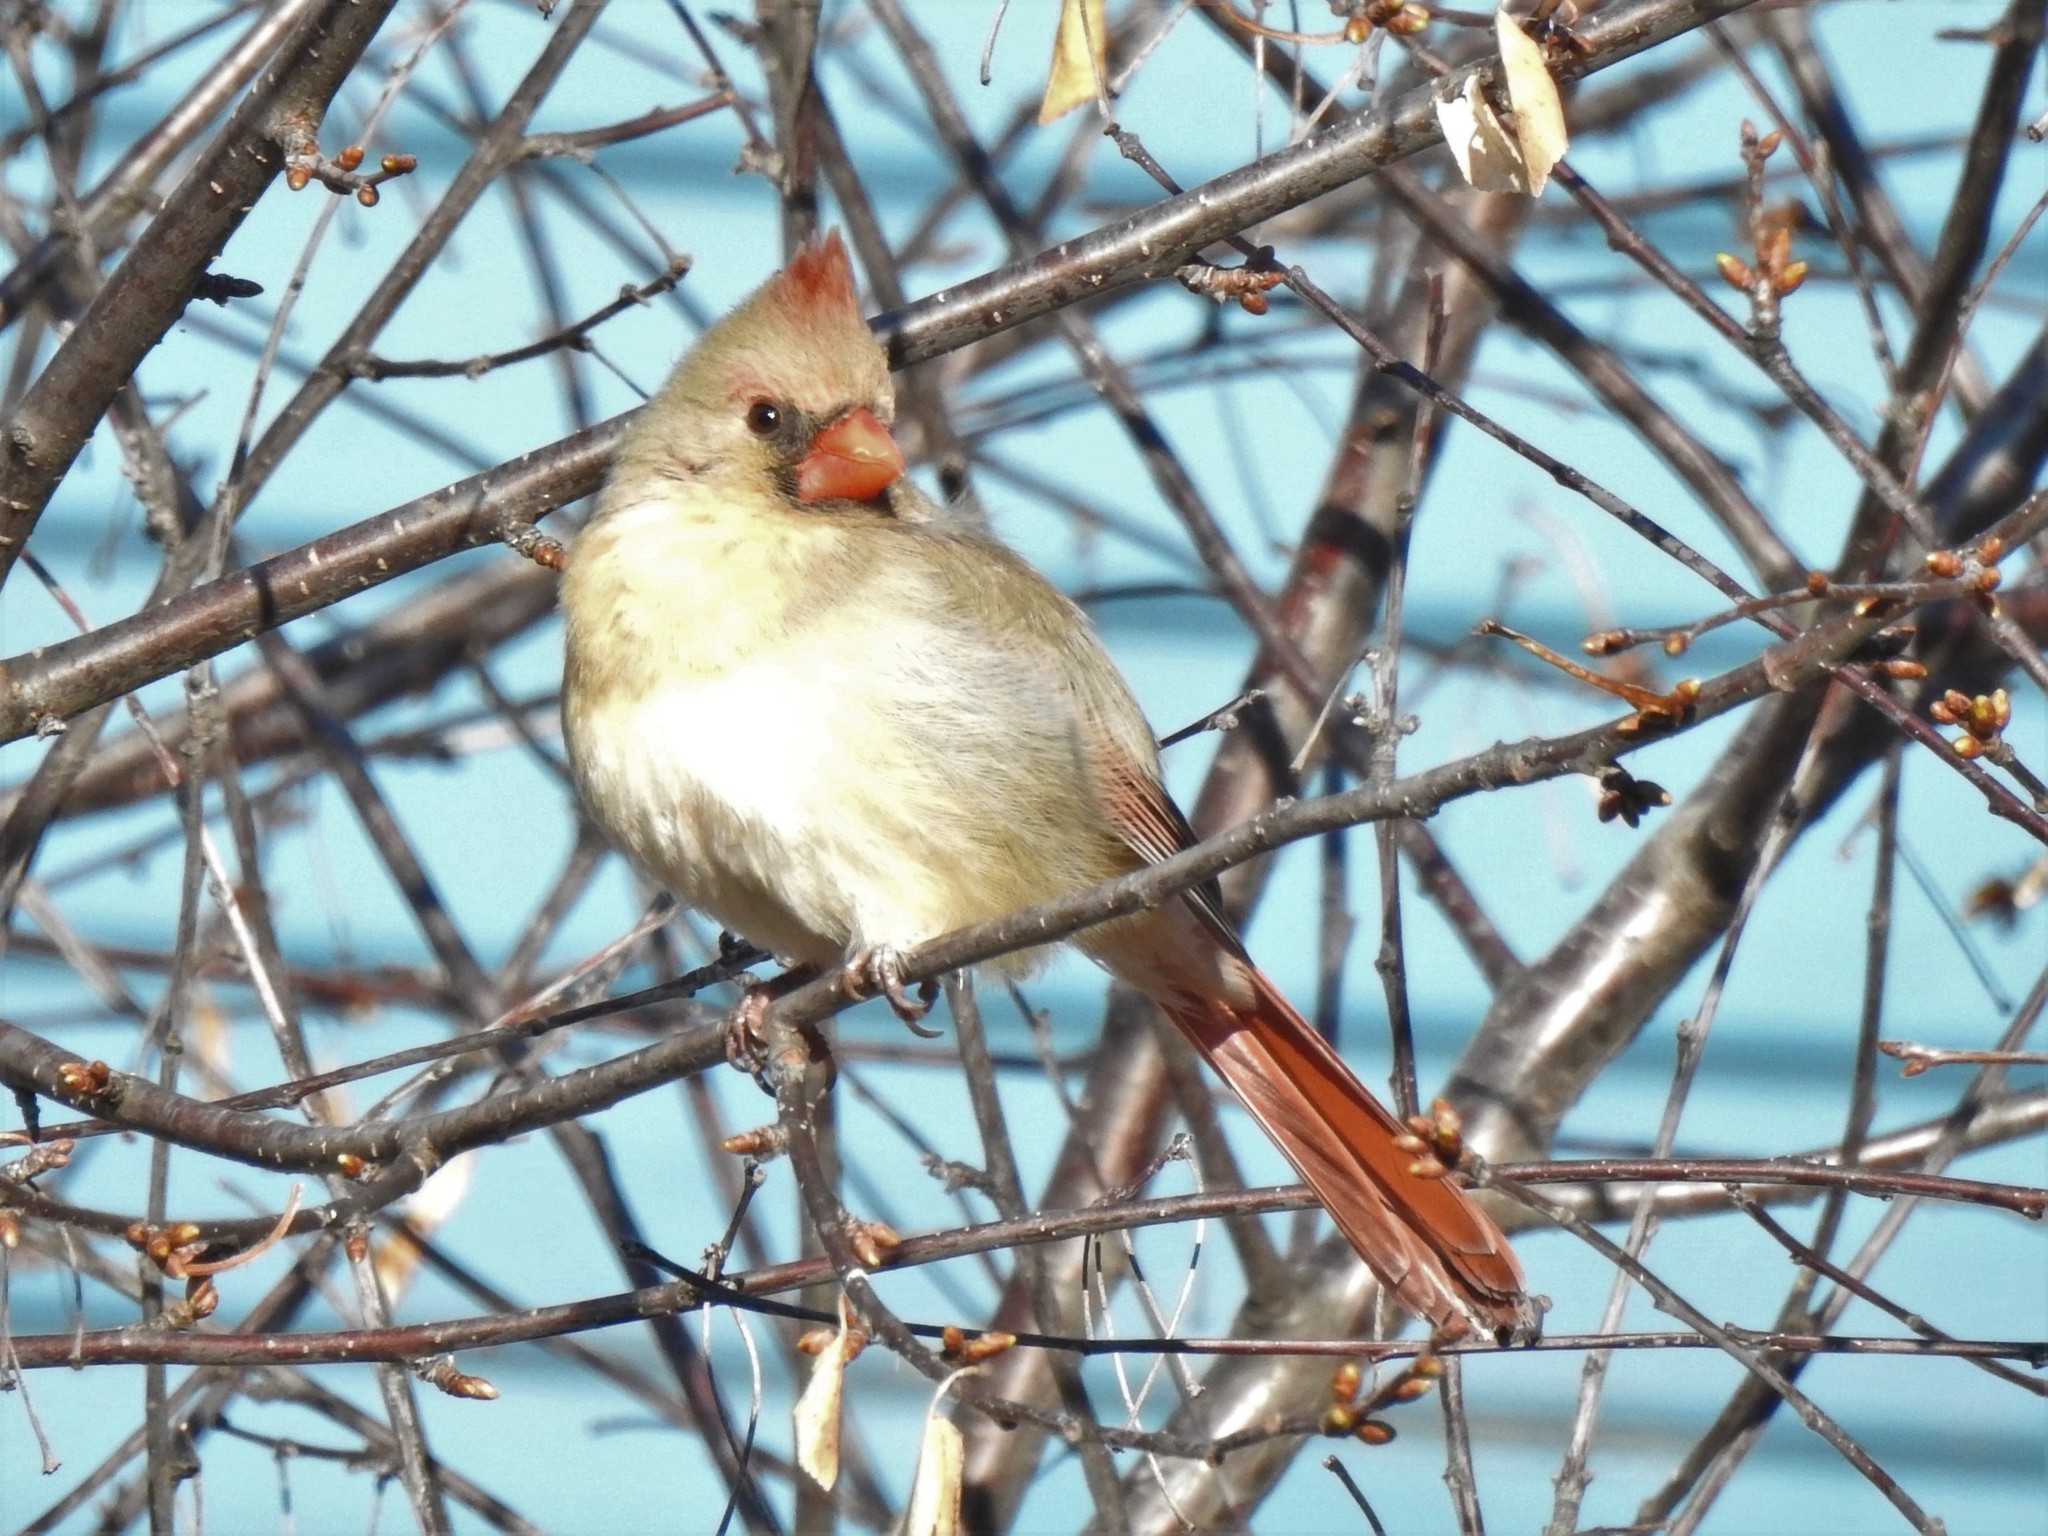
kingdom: Animalia
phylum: Chordata
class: Aves
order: Passeriformes
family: Cardinalidae
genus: Cardinalis
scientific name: Cardinalis cardinalis
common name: Northern cardinal
